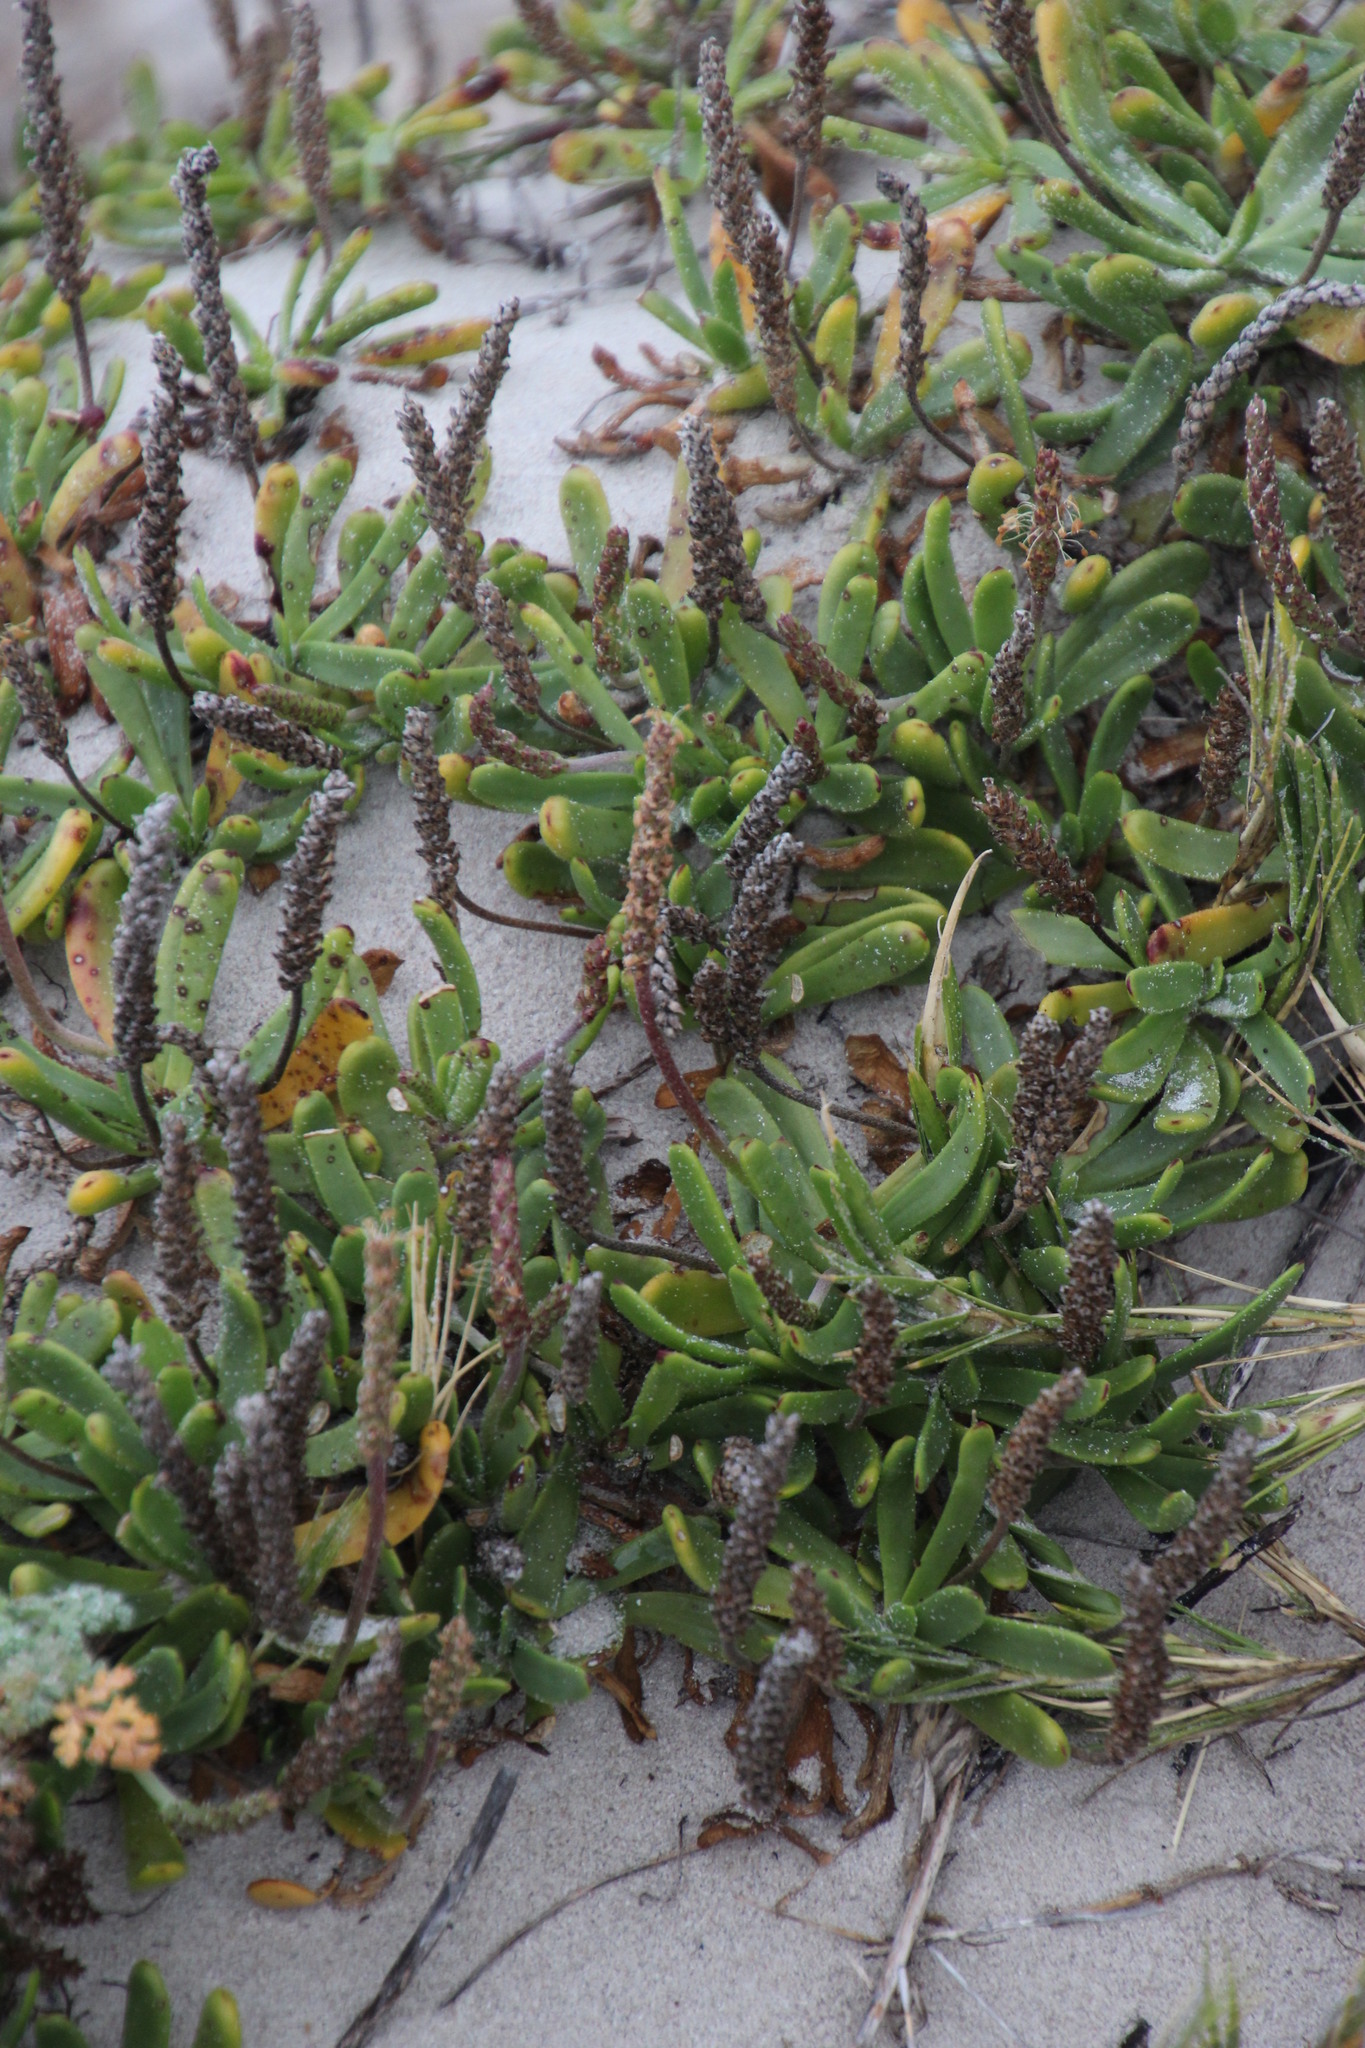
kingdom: Plantae
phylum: Tracheophyta
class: Magnoliopsida
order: Lamiales
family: Plantaginaceae
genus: Plantago
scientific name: Plantago carnosa
